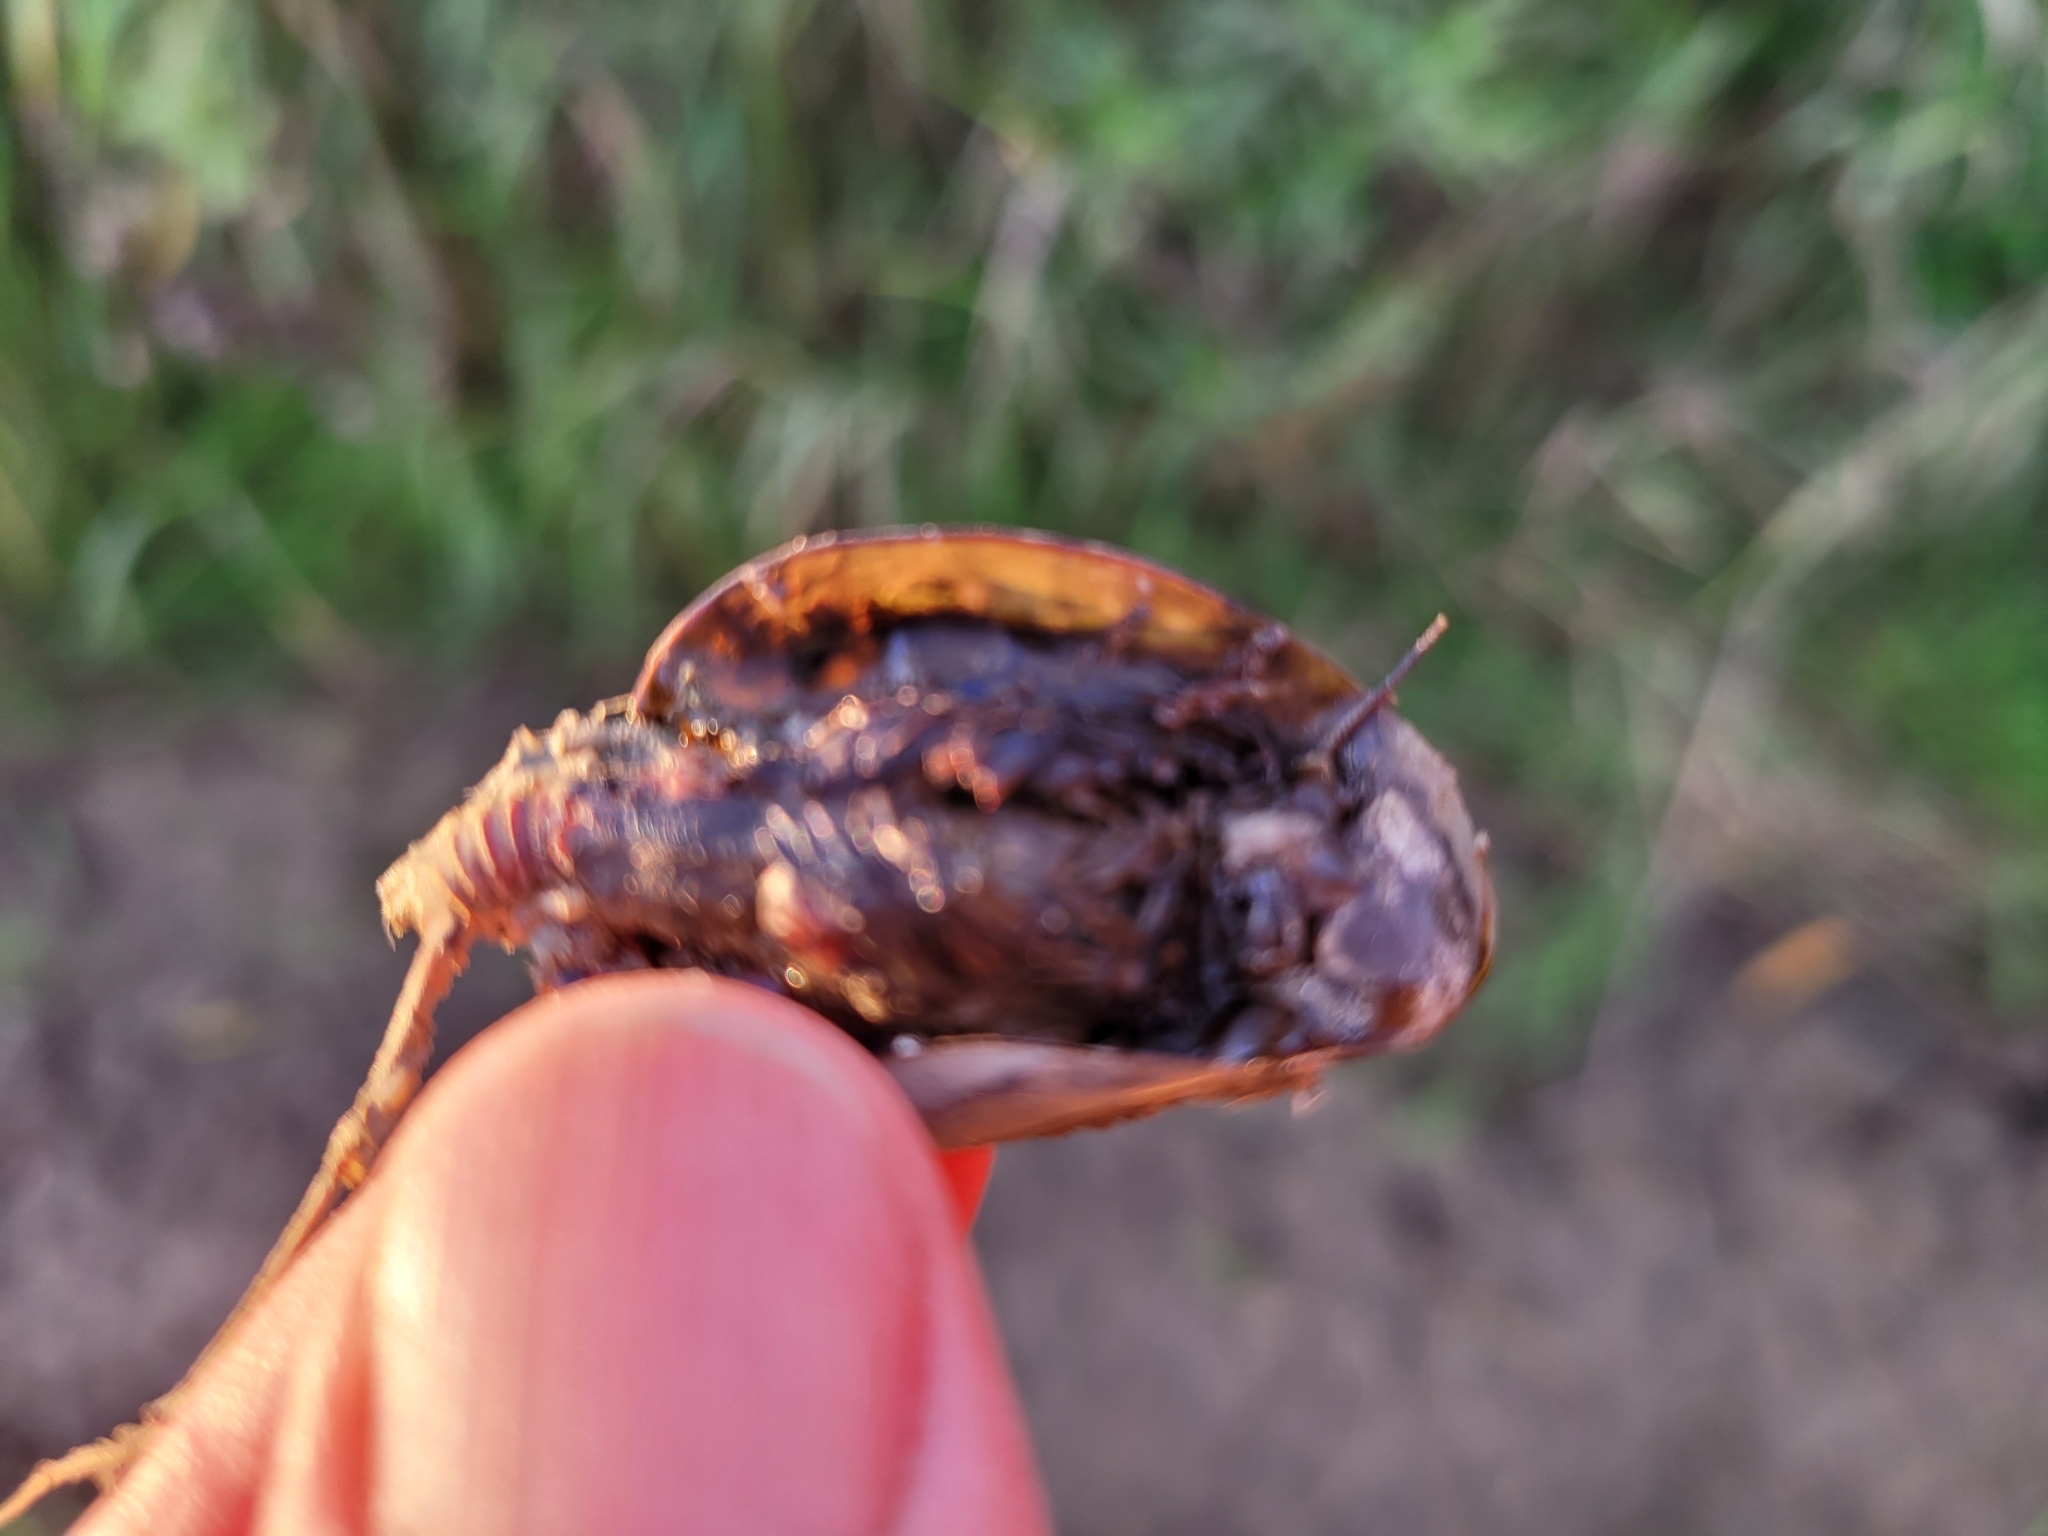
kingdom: Animalia
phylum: Arthropoda
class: Branchiopoda
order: Notostraca
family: Triopsidae
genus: Triops
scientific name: Triops cancriformis
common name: Tadpole shrimp
